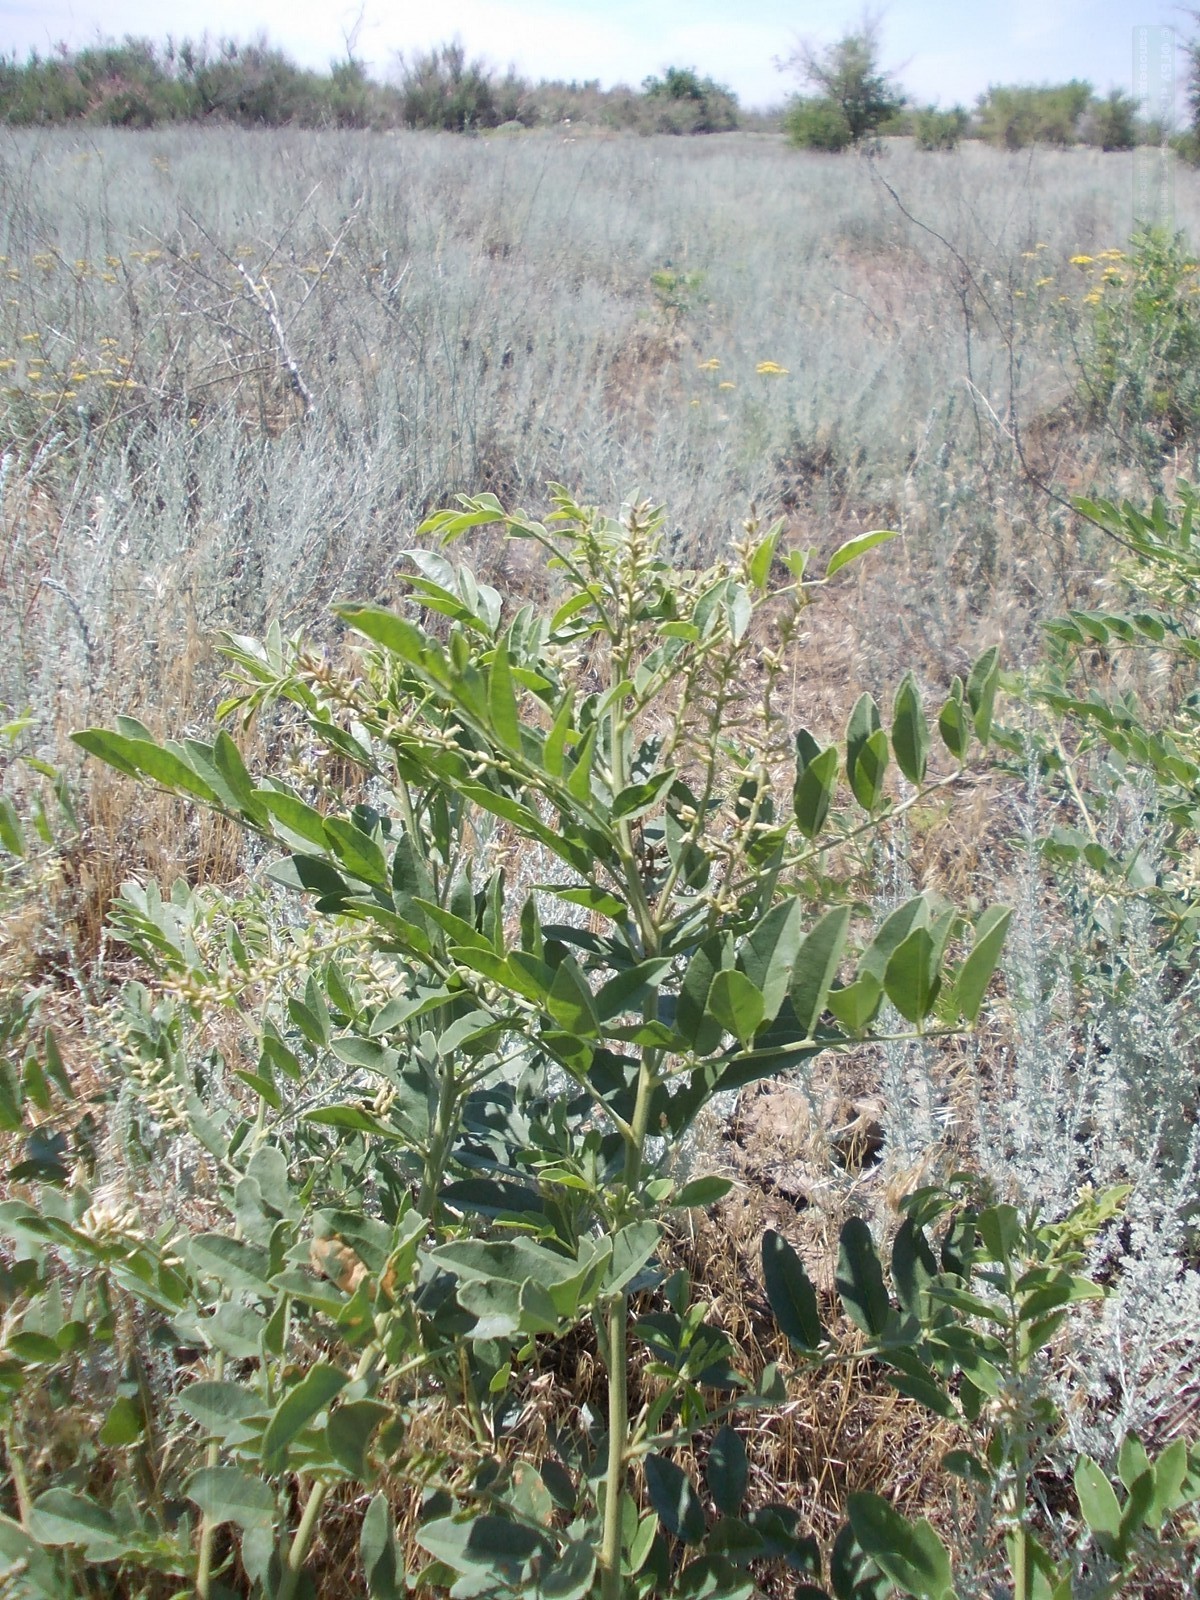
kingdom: Plantae
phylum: Tracheophyta
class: Magnoliopsida
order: Fabales
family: Fabaceae
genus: Glycyrrhiza
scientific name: Glycyrrhiza glabra
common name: Liquorice
